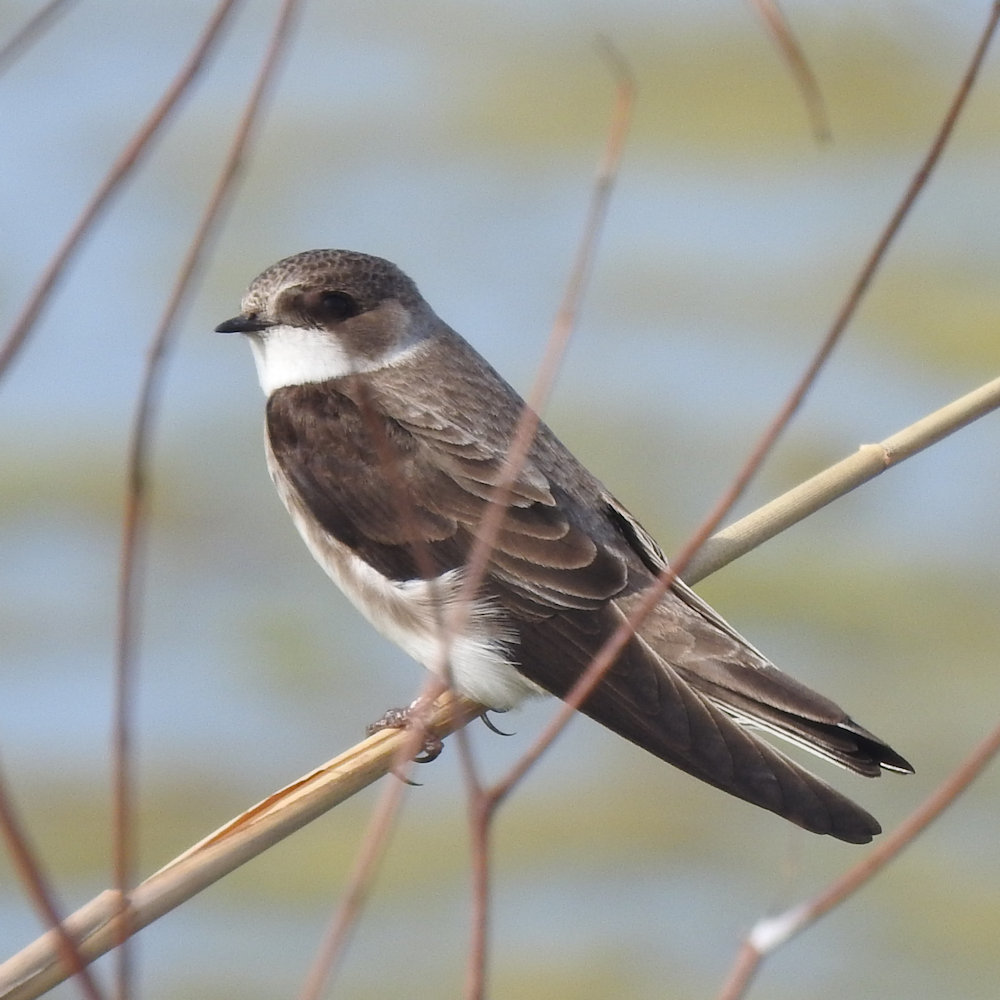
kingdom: Animalia
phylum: Chordata
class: Aves
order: Passeriformes
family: Hirundinidae
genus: Tachycineta
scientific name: Tachycineta bicolor
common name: Tree swallow
